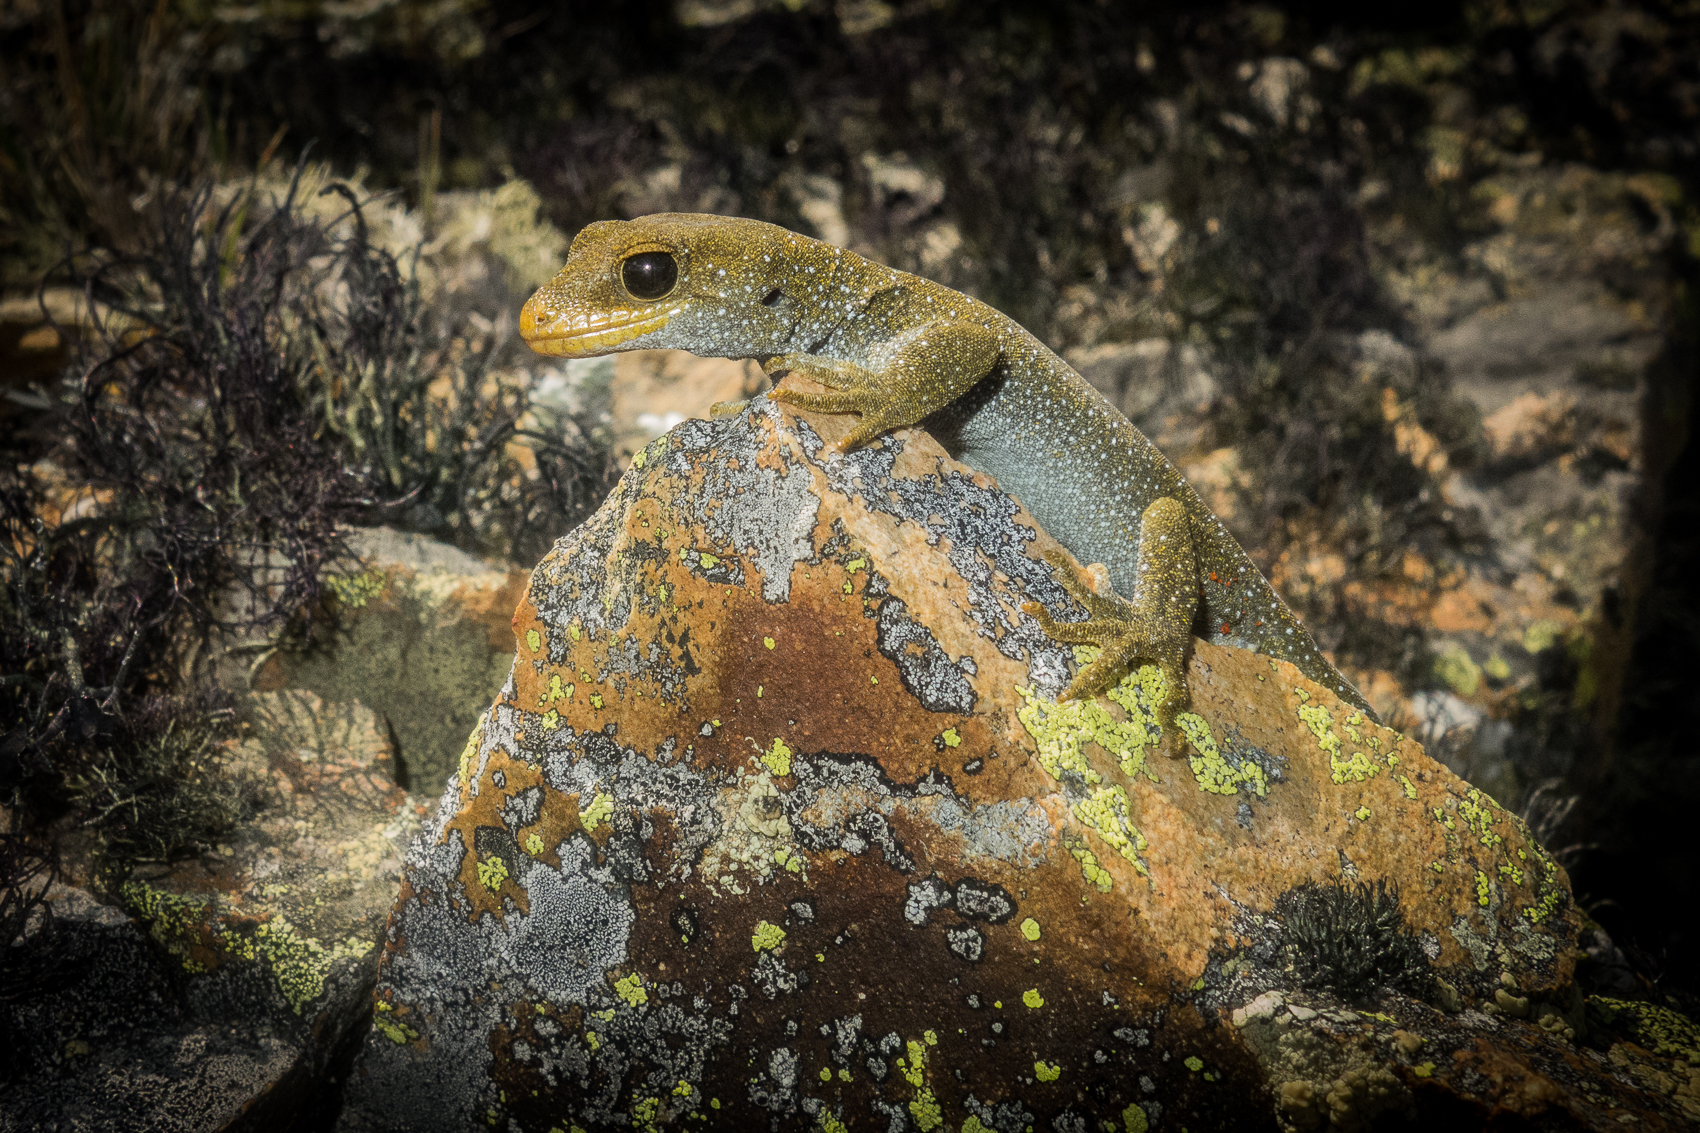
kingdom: Animalia
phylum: Chordata
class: Squamata
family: Diplodactylidae
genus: Mokopirirakau
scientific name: Mokopirirakau galaxias
